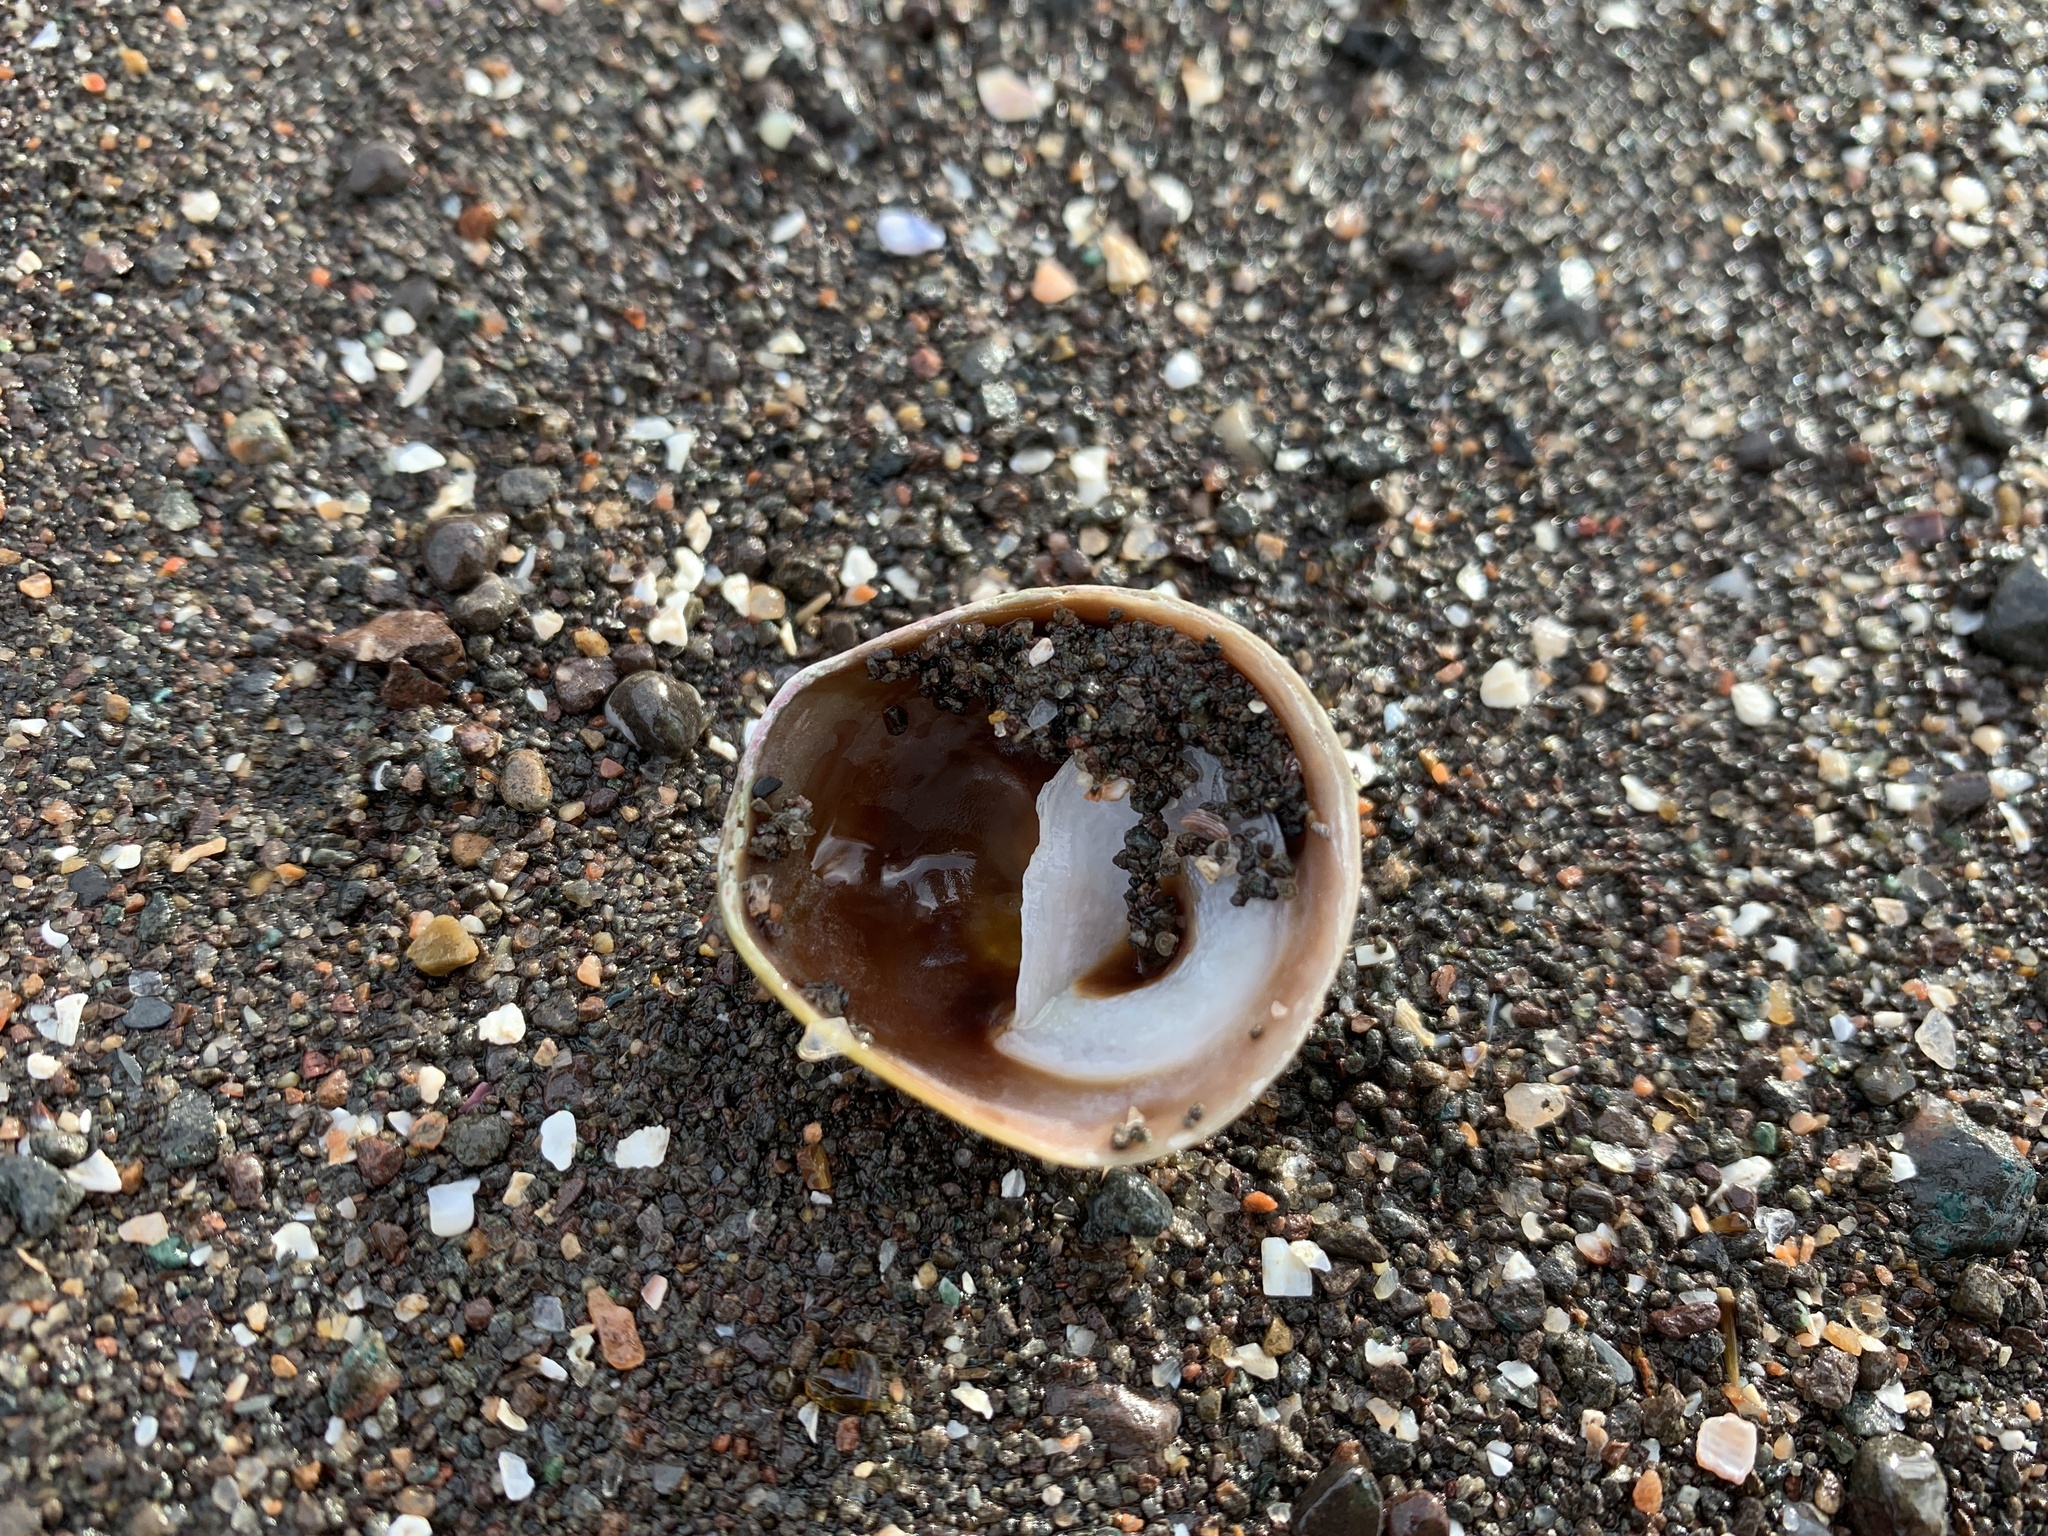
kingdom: Animalia
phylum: Mollusca
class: Gastropoda
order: Littorinimorpha
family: Calyptraeidae
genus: Crucibulum
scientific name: Crucibulum striatum
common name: Striate cup-and -saucer
